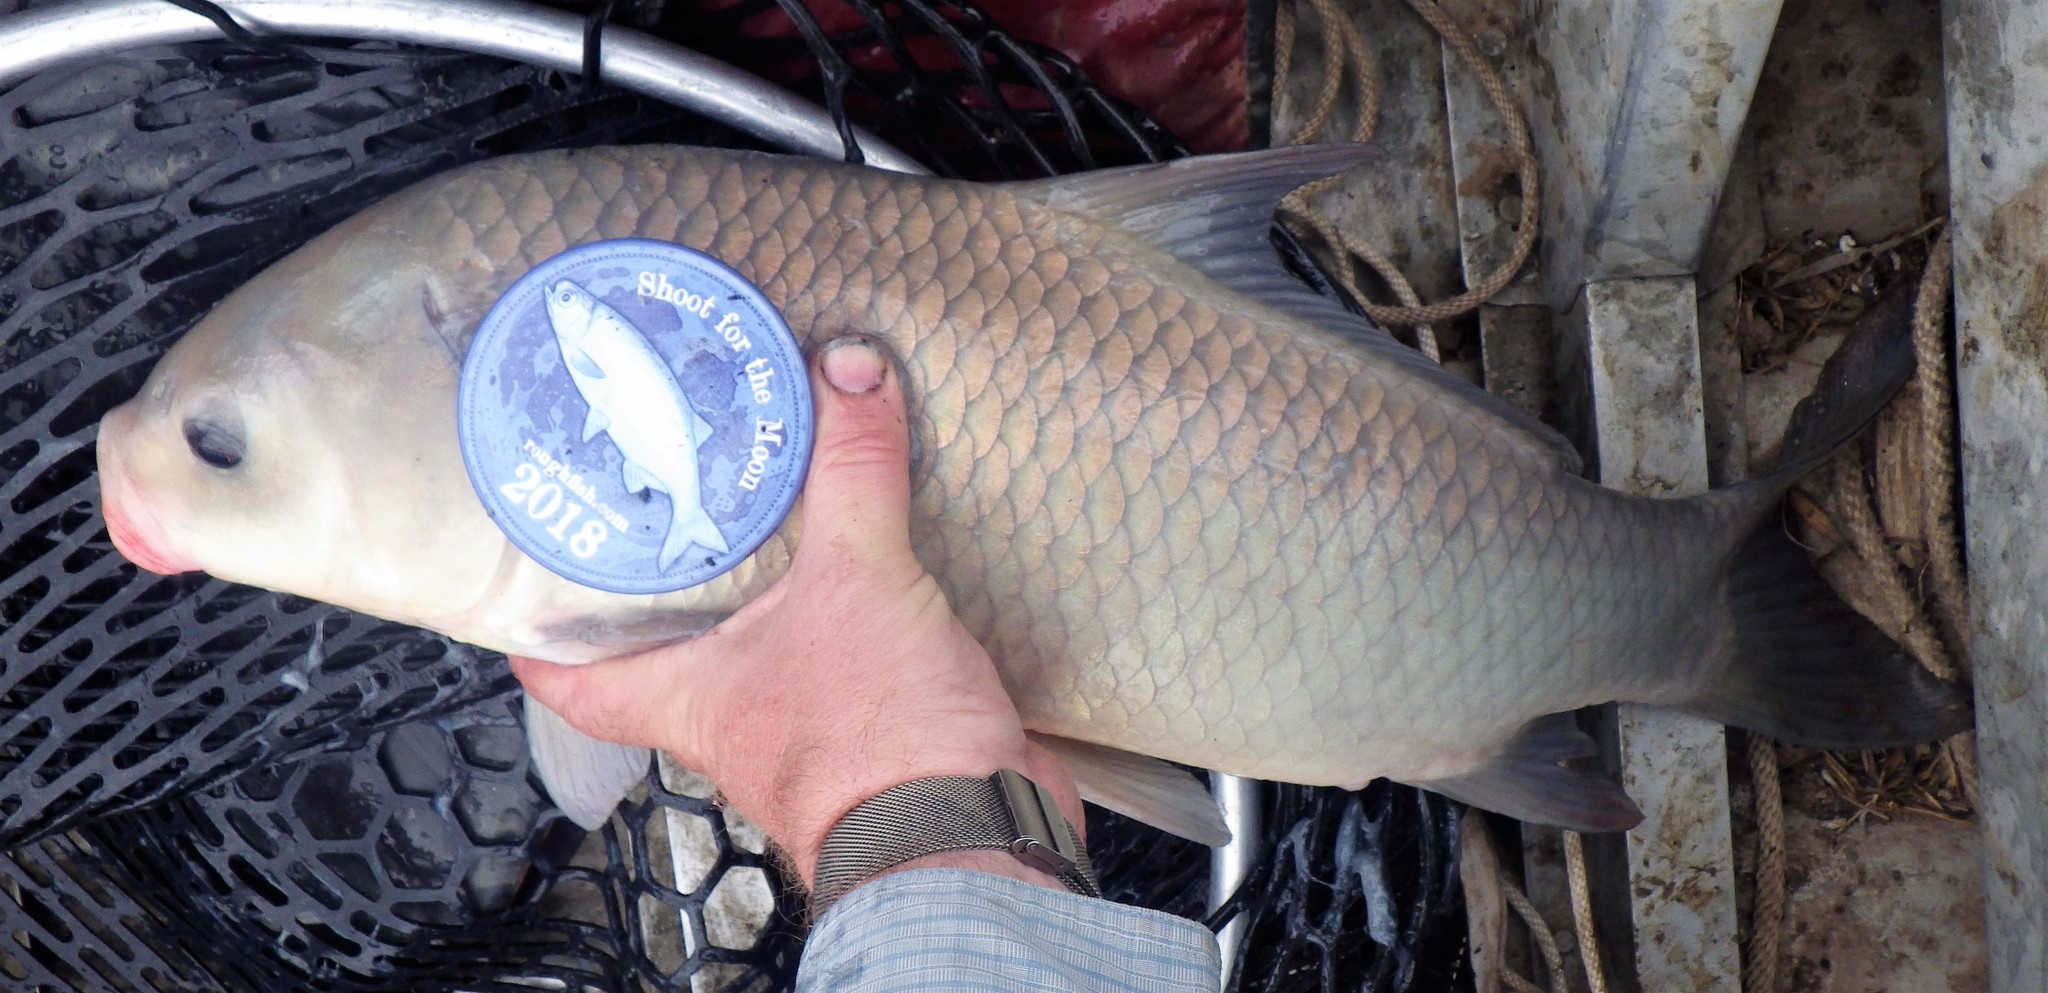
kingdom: Animalia
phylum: Chordata
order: Cypriniformes
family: Catostomidae
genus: Ictiobus
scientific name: Ictiobus bubalus
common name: Smallmouth buffalo
